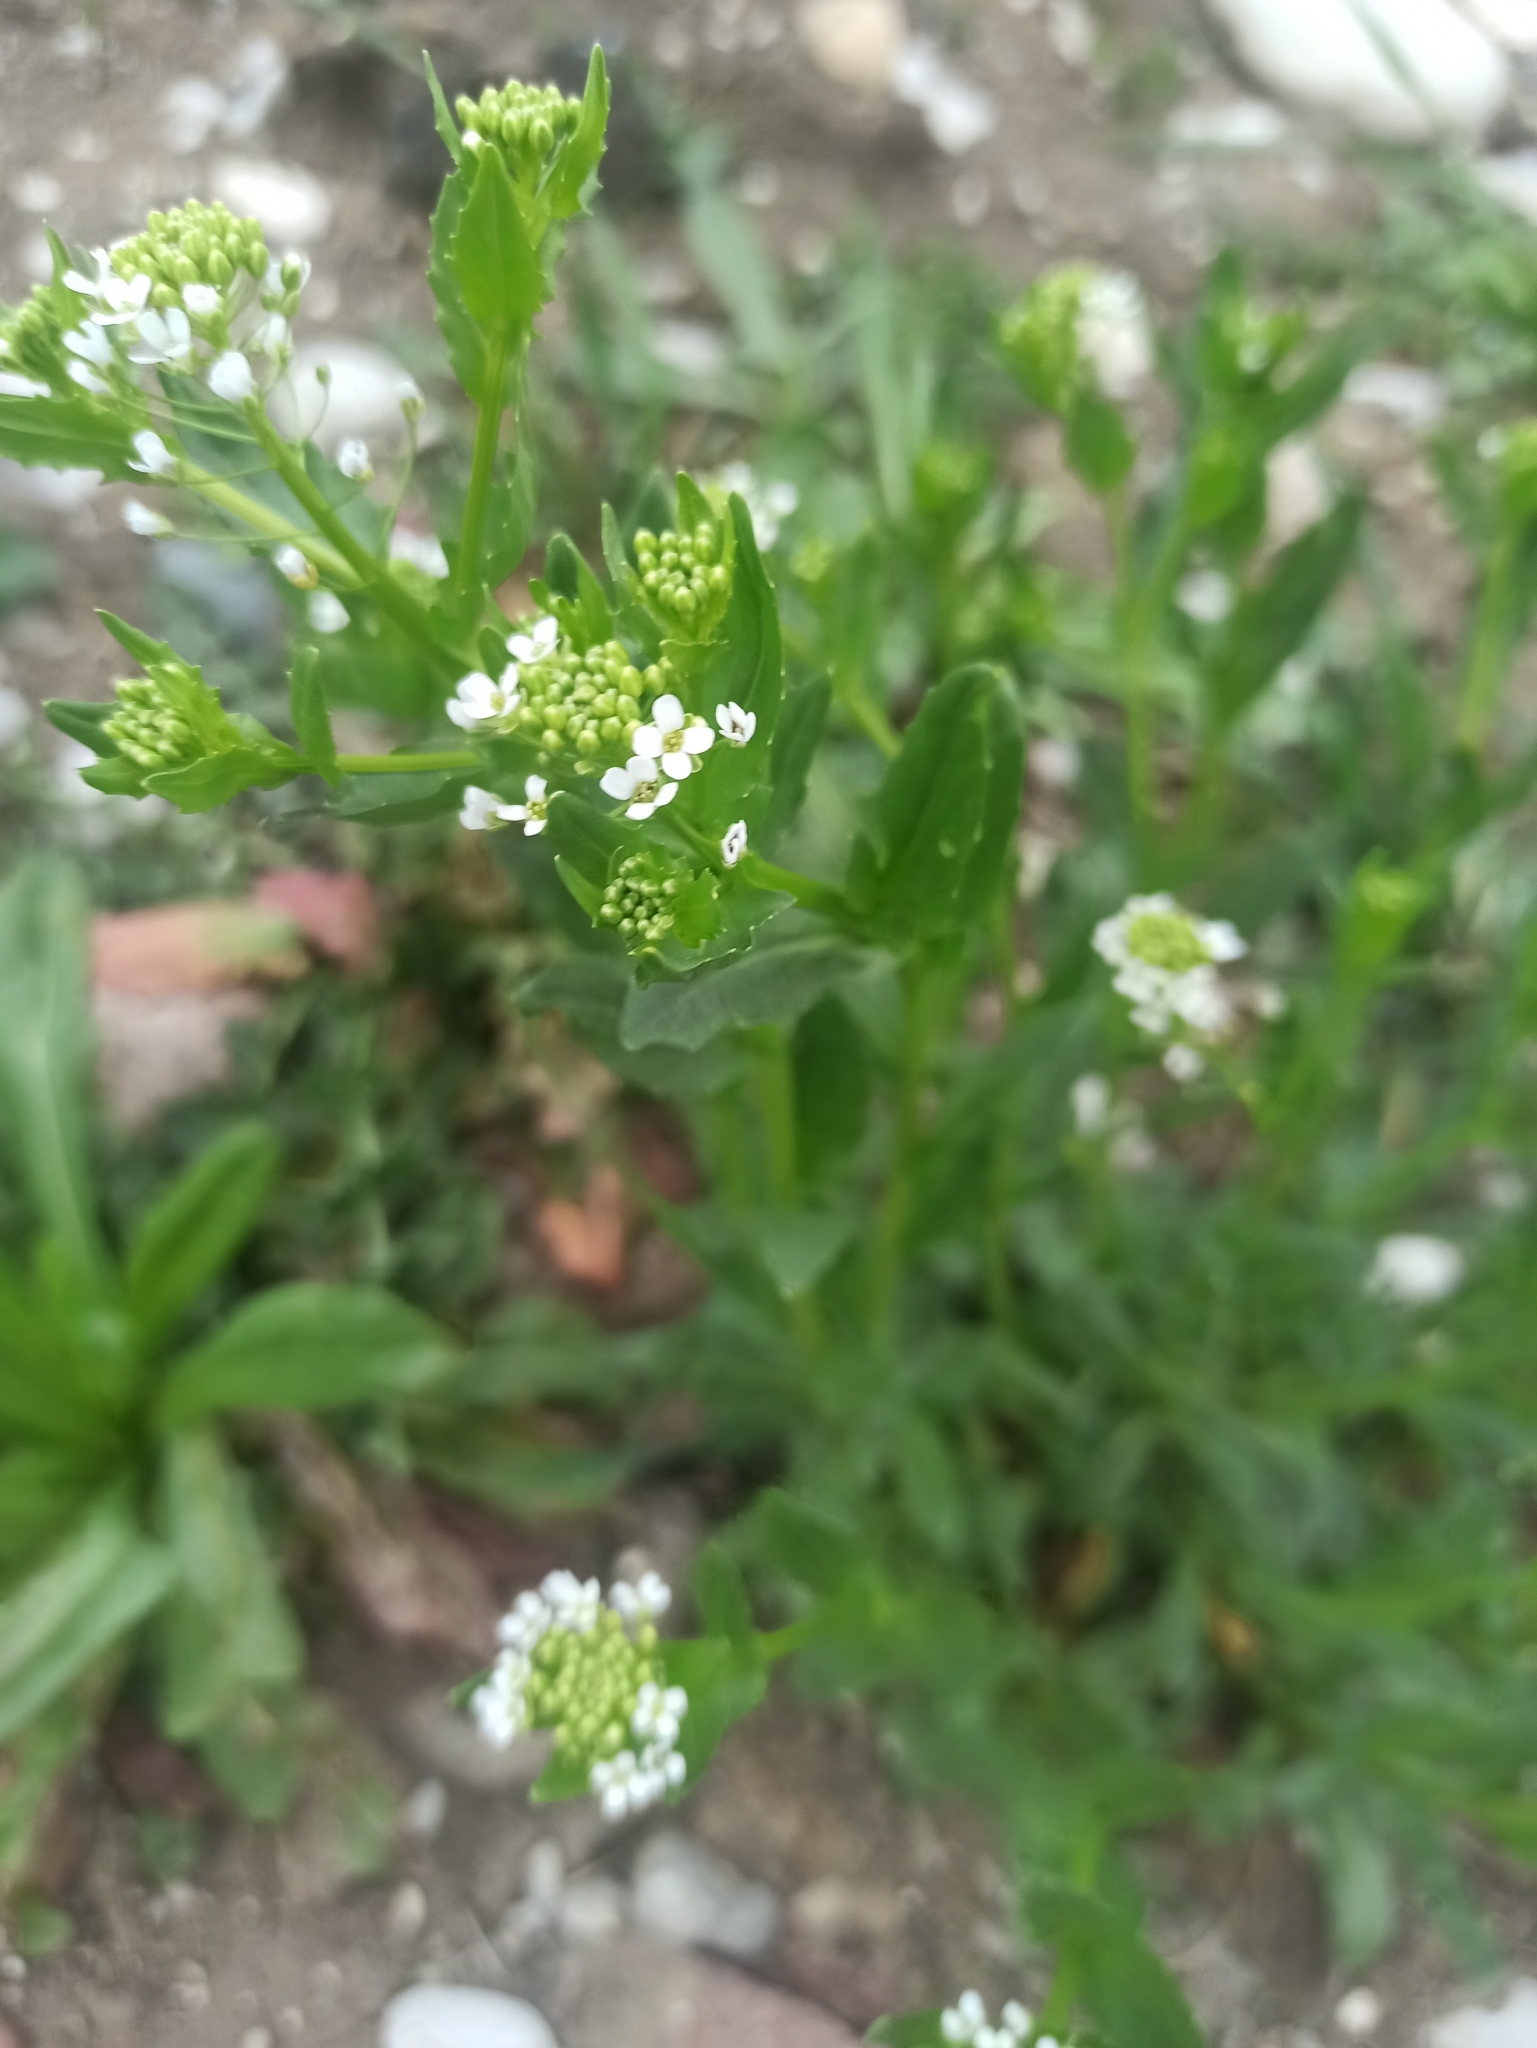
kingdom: Plantae
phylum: Tracheophyta
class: Magnoliopsida
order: Brassicales
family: Brassicaceae
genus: Thlaspi
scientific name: Thlaspi arvense
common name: Field pennycress
